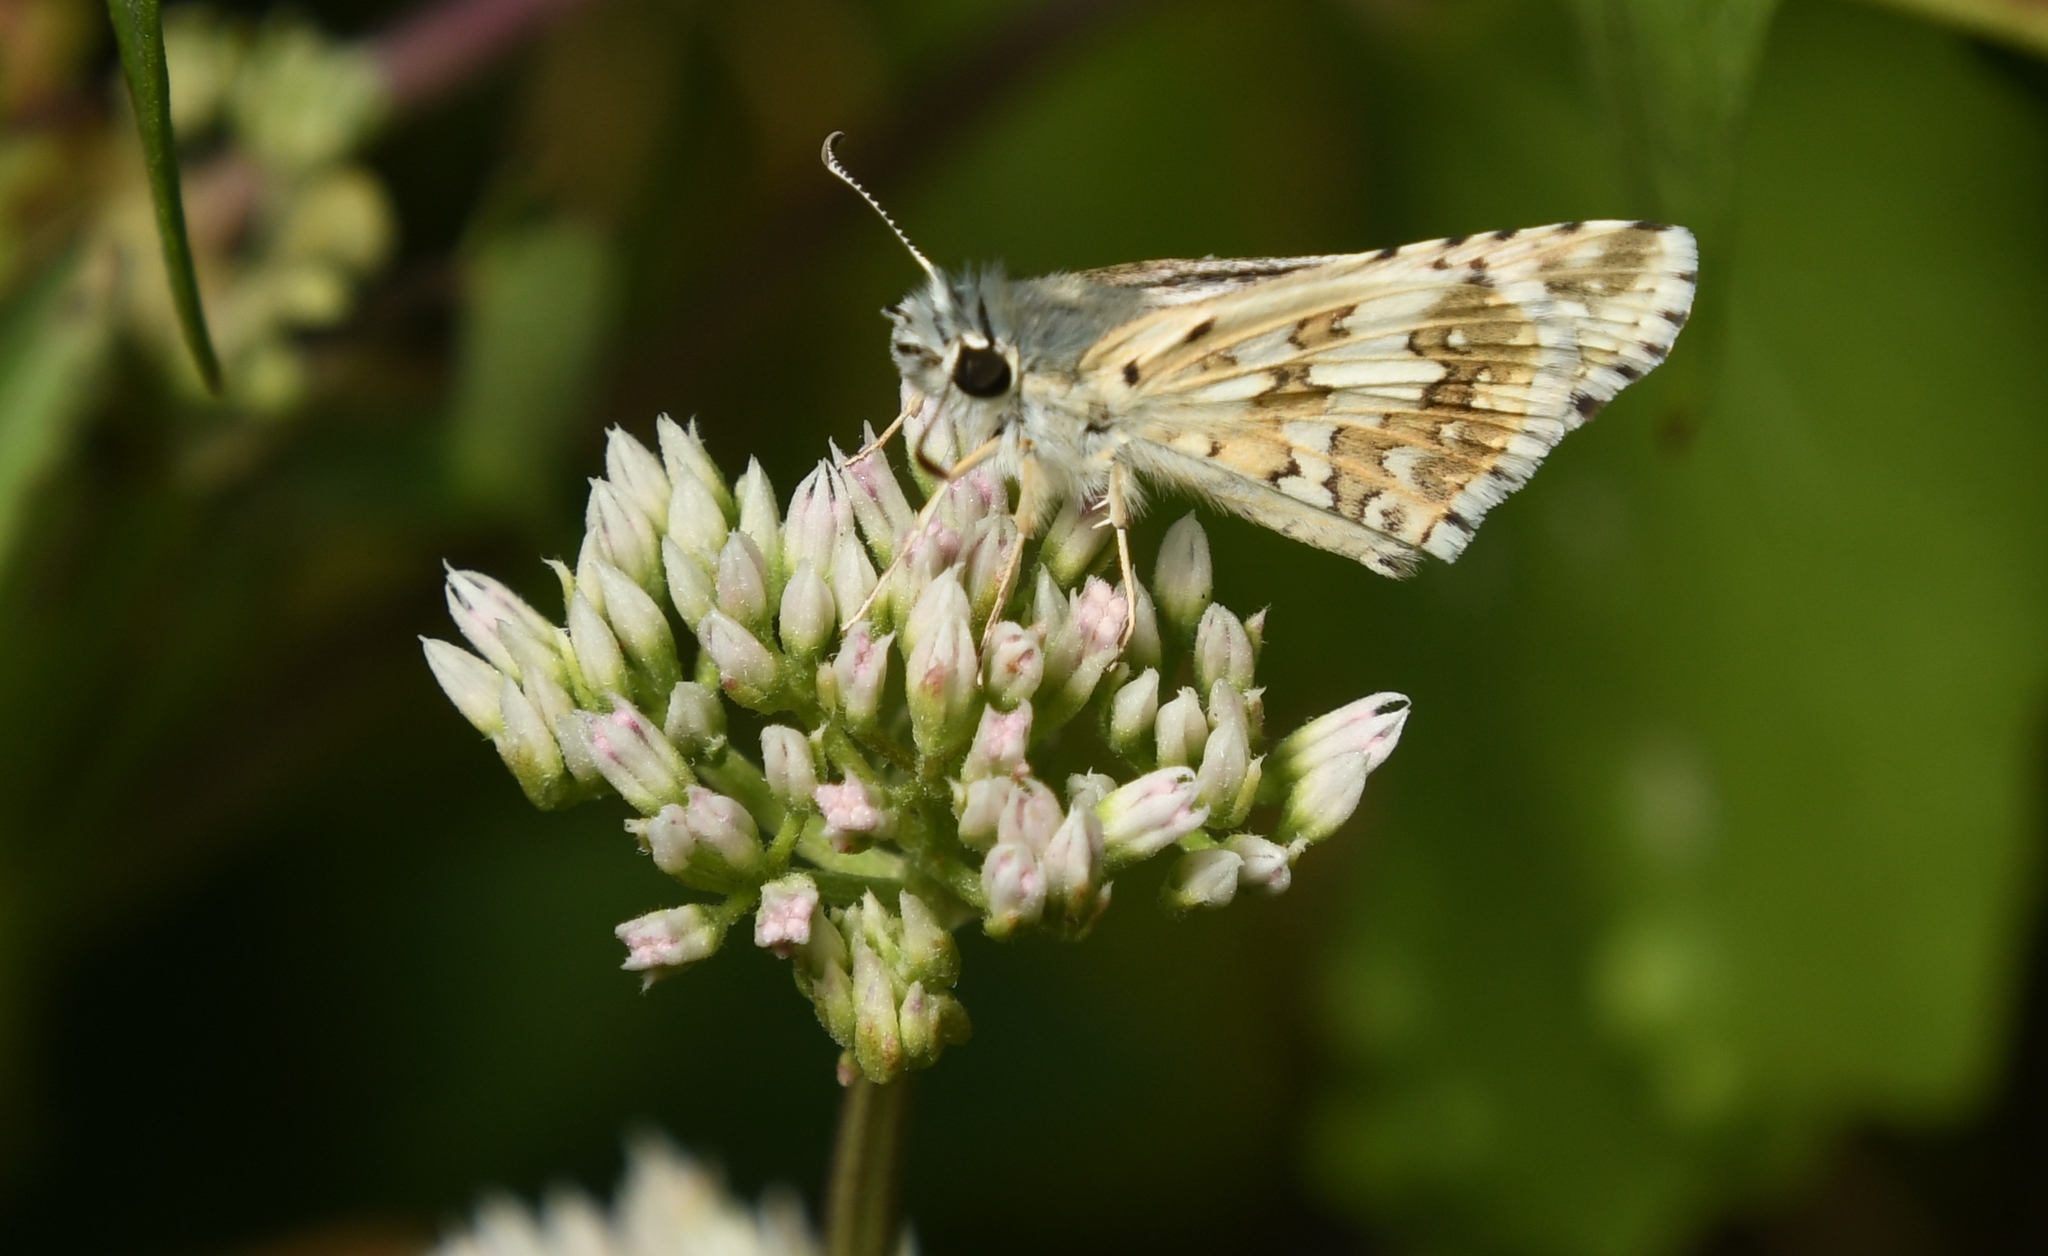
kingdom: Animalia
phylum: Arthropoda
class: Insecta
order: Lepidoptera
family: Hesperiidae
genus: Burnsius
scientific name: Burnsius albezens
